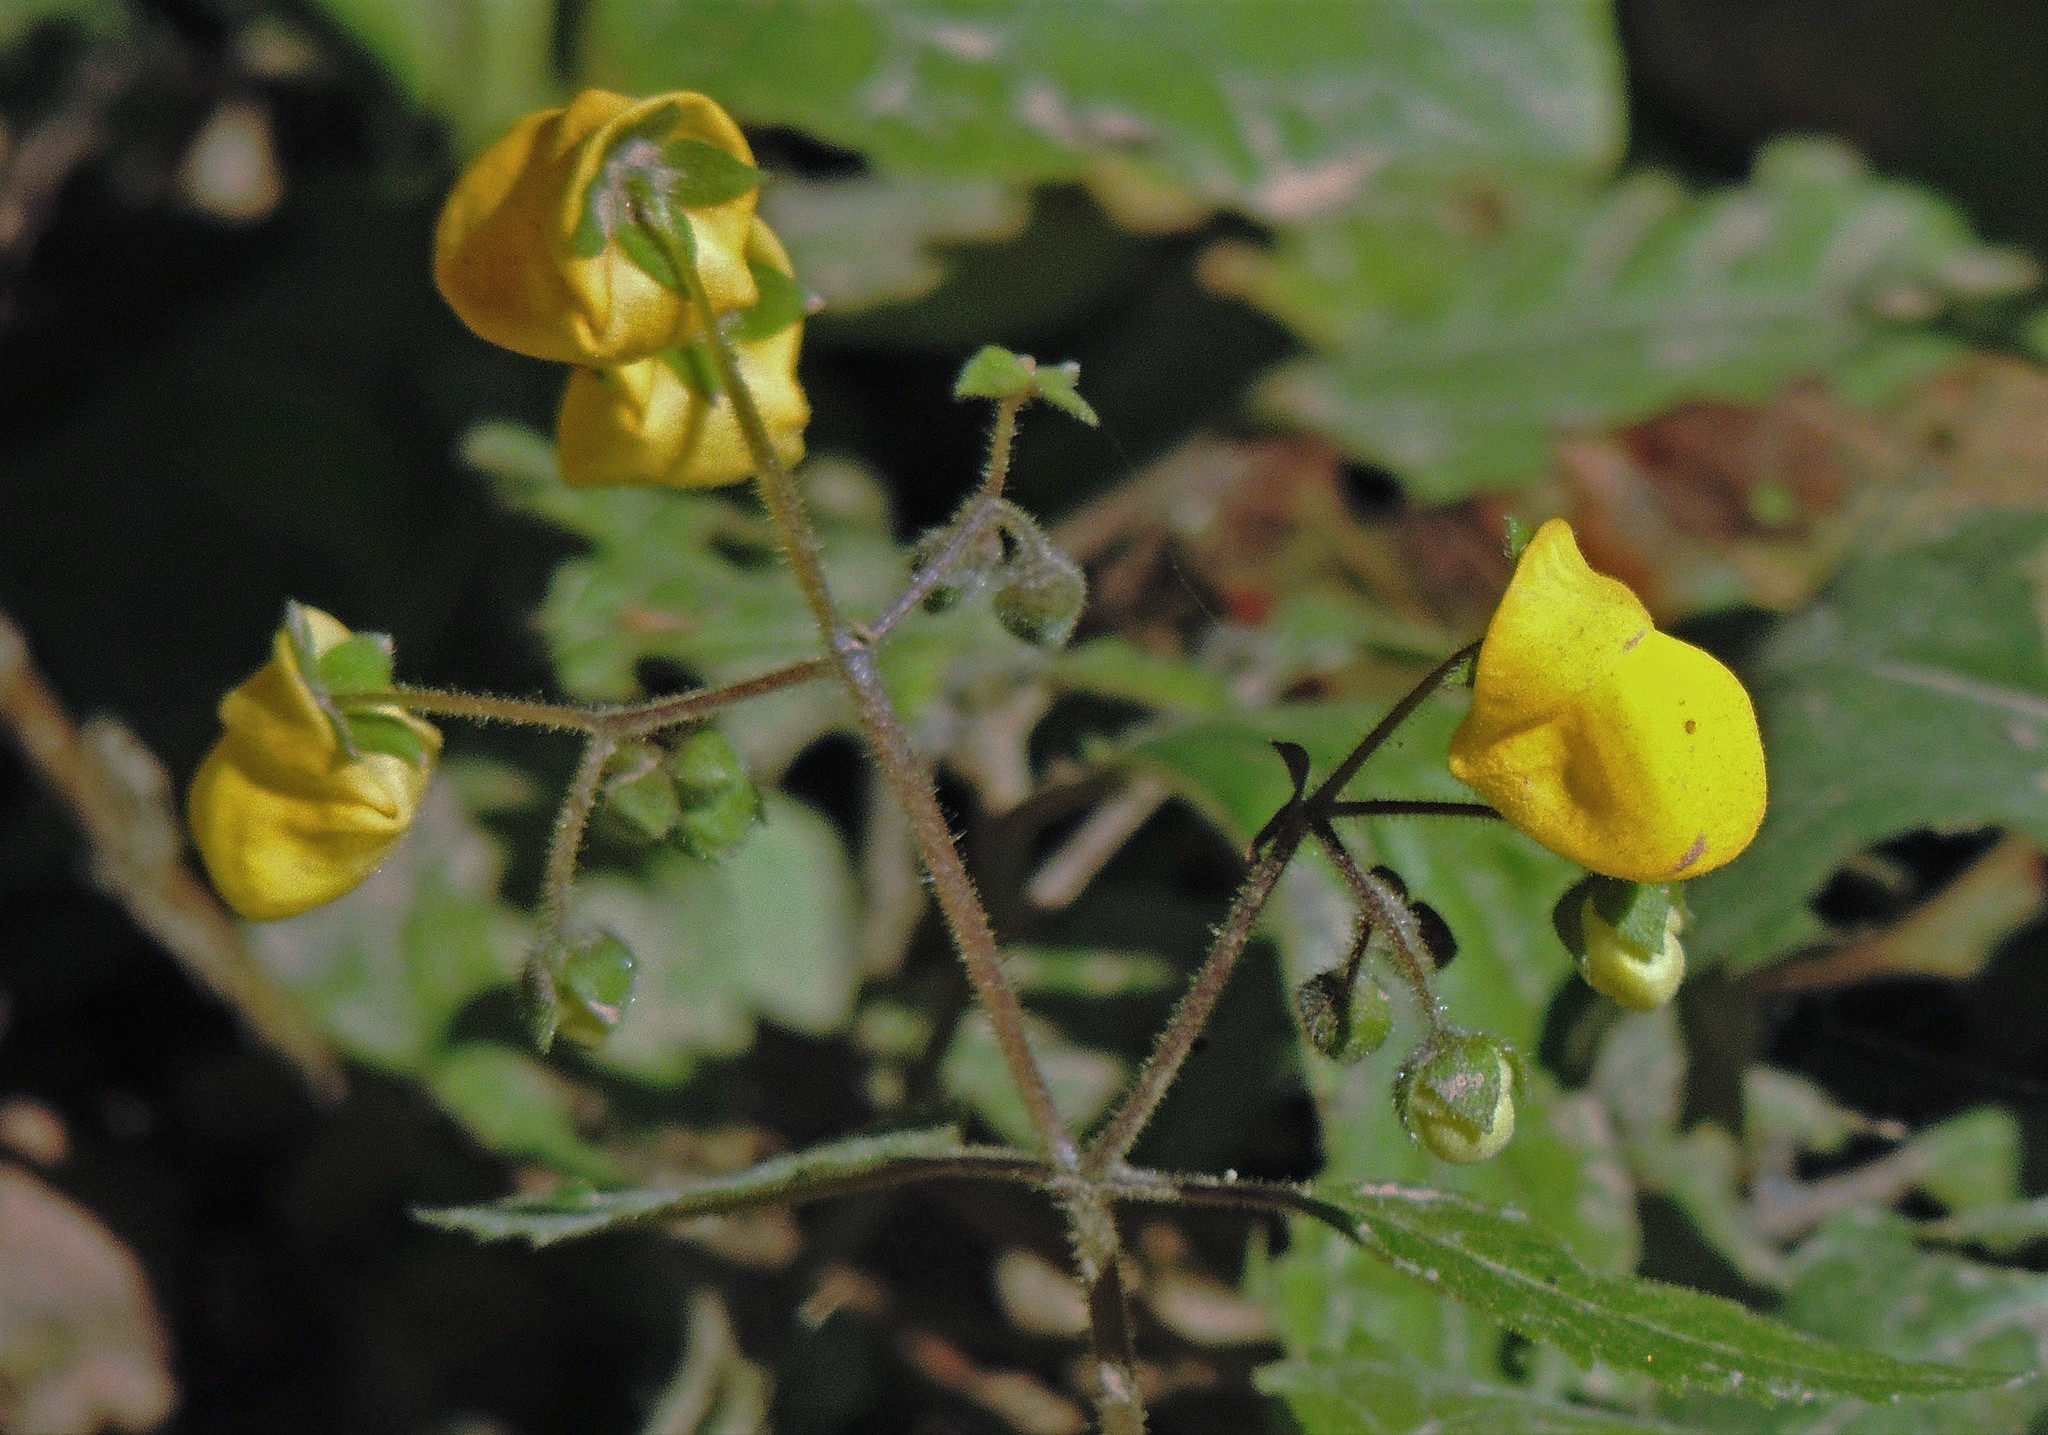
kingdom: Plantae
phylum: Tracheophyta
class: Magnoliopsida
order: Lamiales
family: Calceolariaceae
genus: Calceolaria
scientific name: Calceolaria elatior
